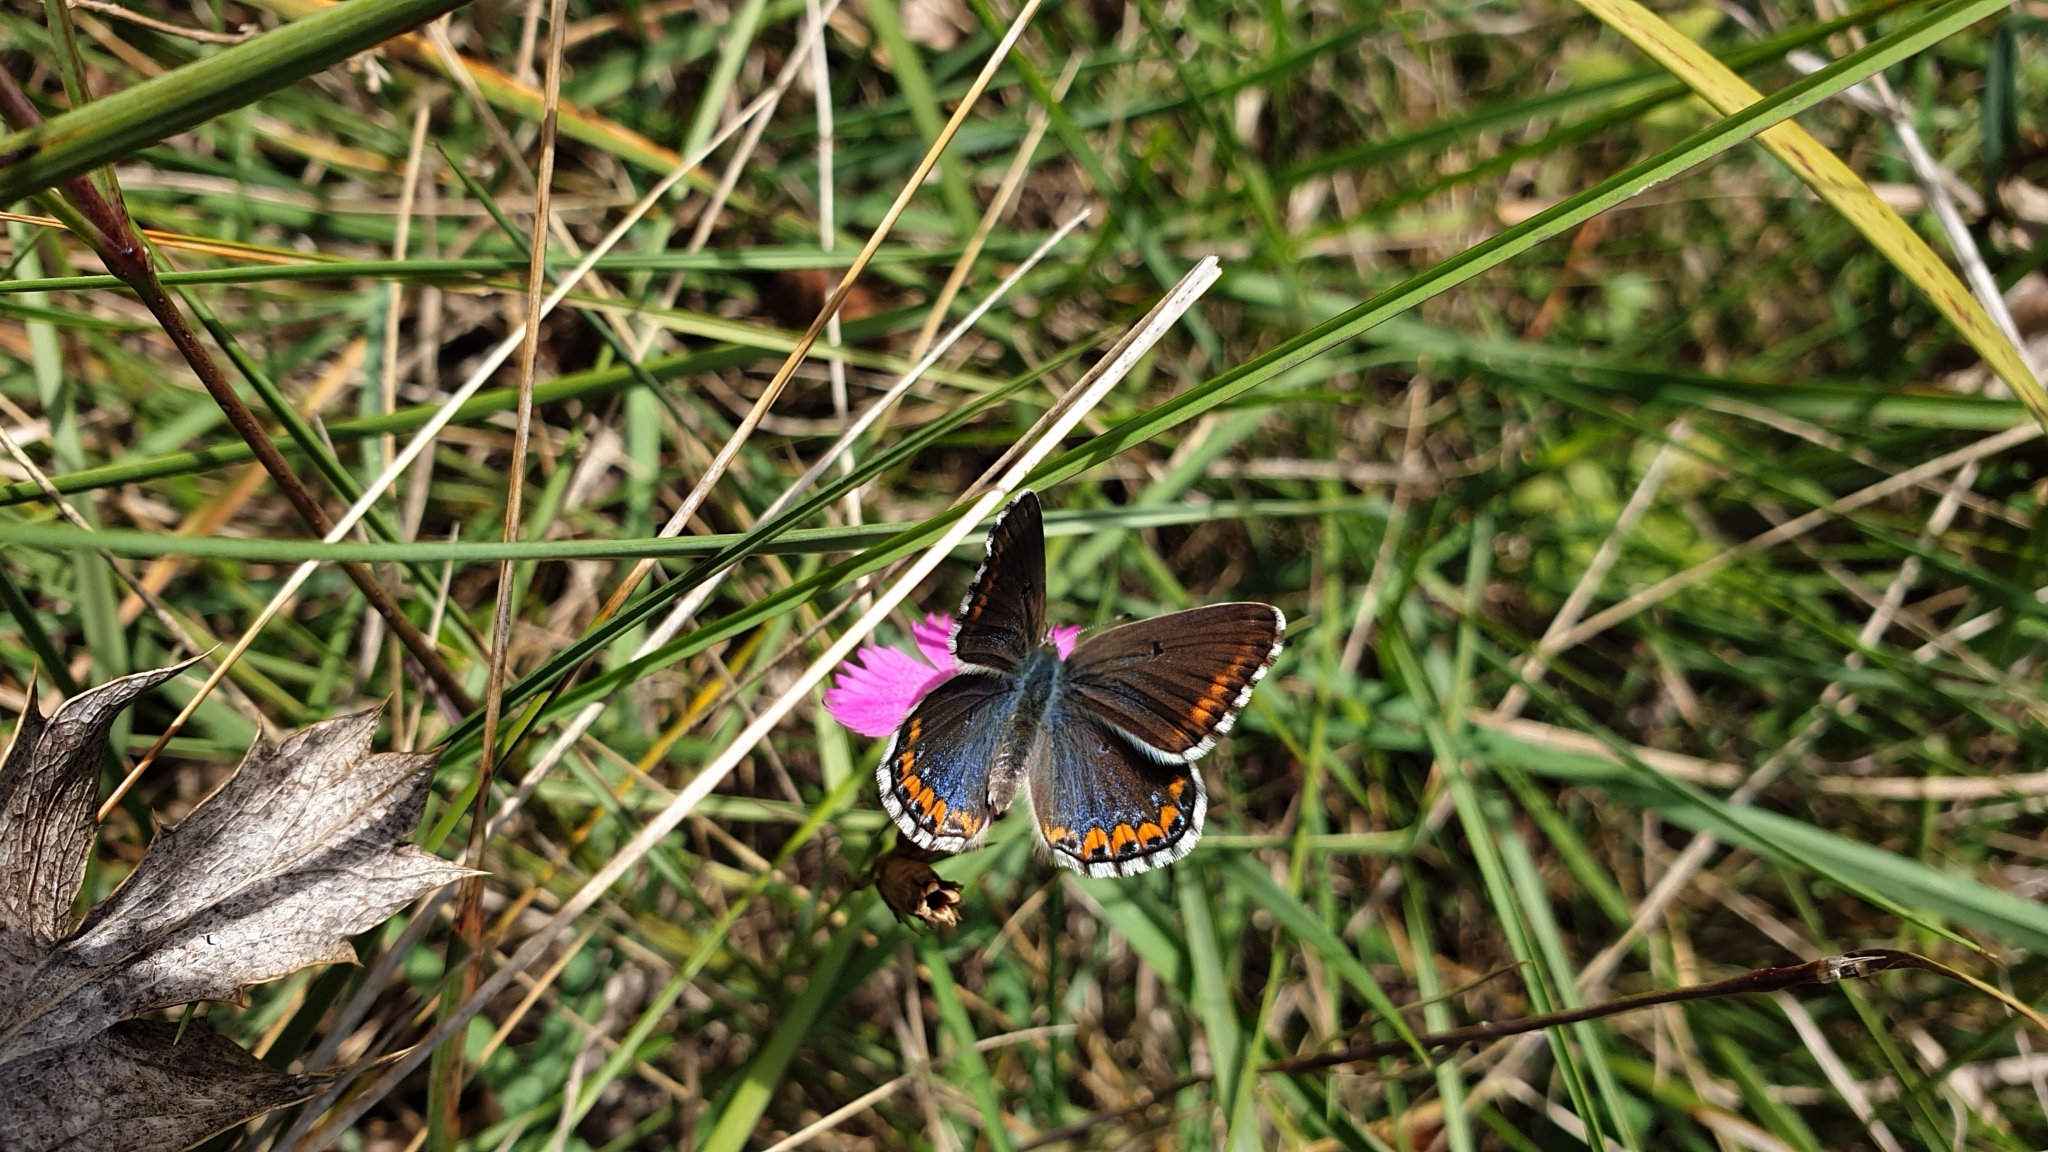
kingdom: Animalia
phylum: Arthropoda
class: Insecta
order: Lepidoptera
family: Lycaenidae
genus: Lysandra
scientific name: Lysandra bellargus
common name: Adonis blue
